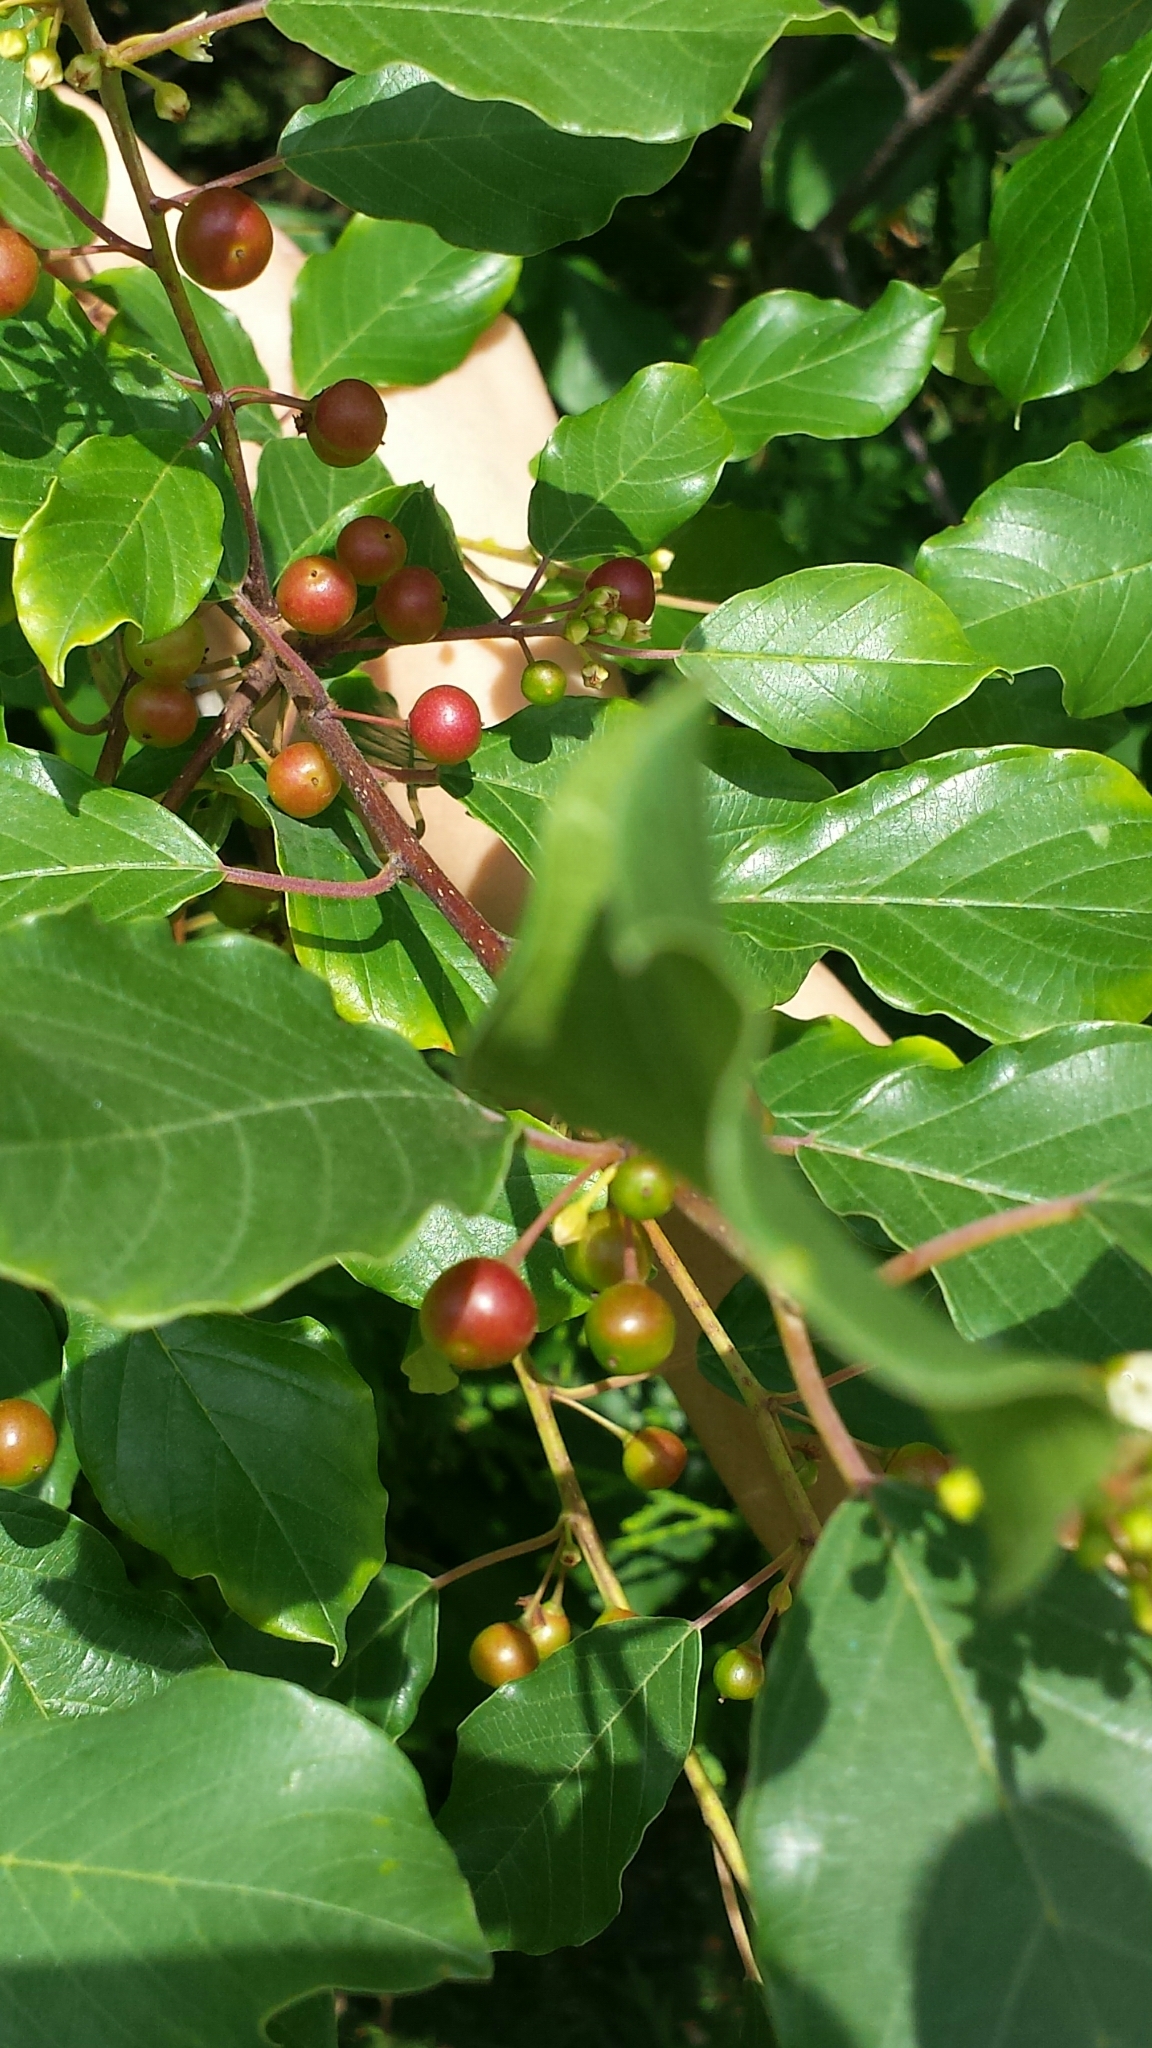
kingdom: Plantae
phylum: Tracheophyta
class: Magnoliopsida
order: Rosales
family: Rhamnaceae
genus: Frangula
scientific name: Frangula alnus
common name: Alder buckthorn
